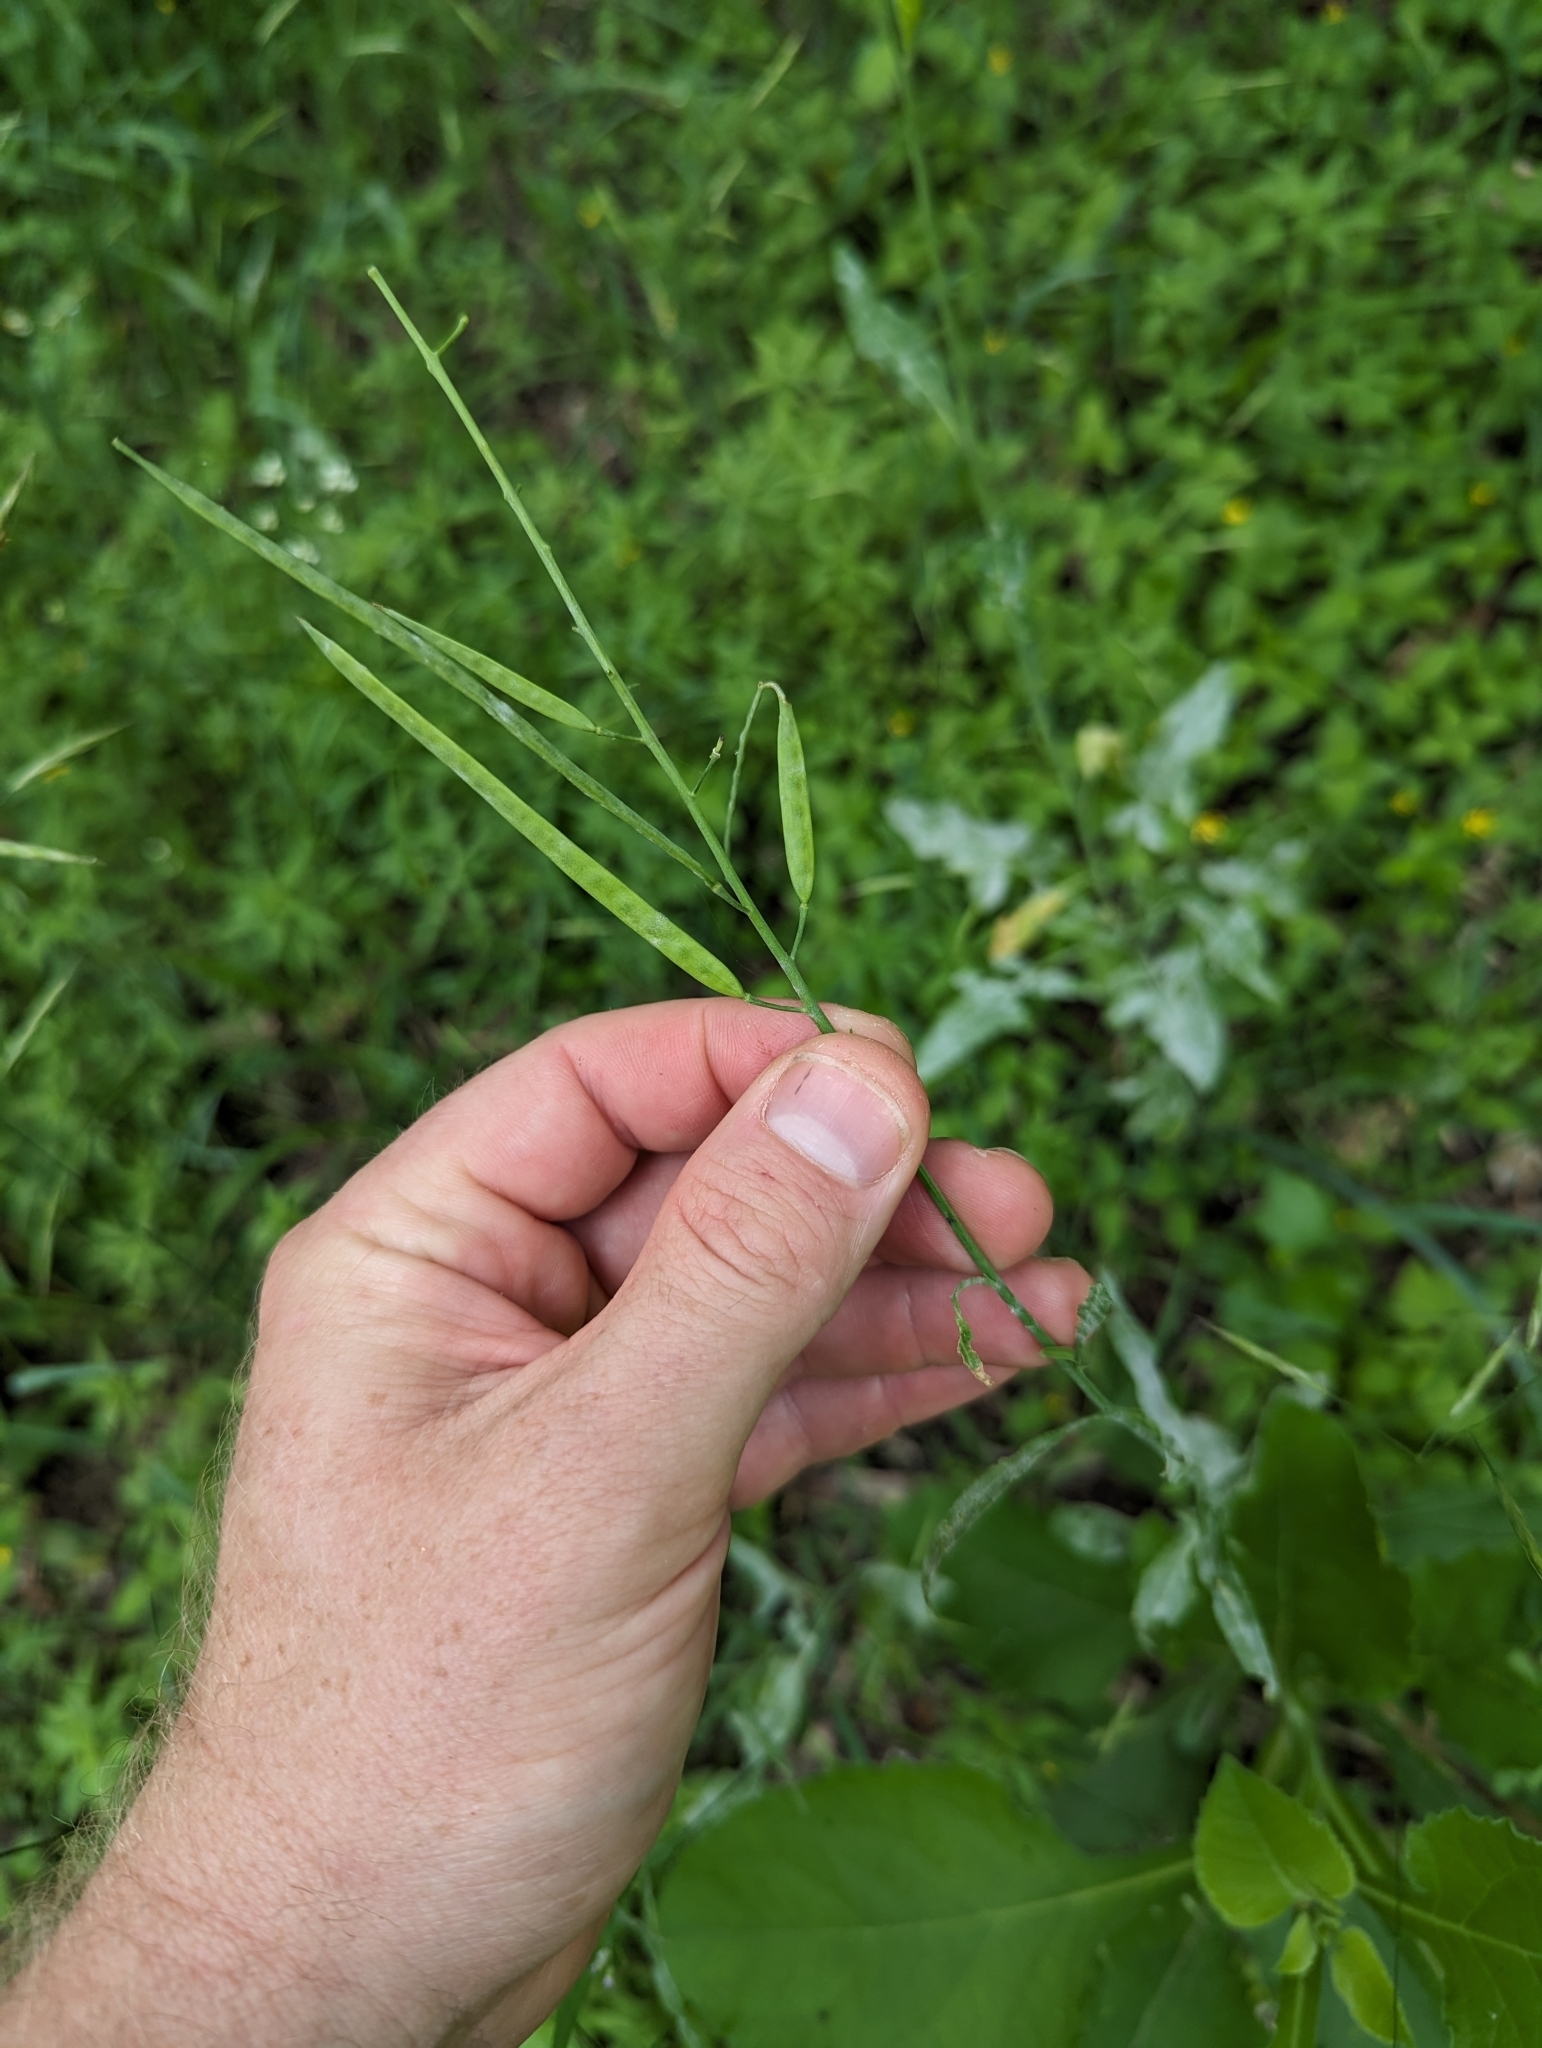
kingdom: Plantae
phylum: Tracheophyta
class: Magnoliopsida
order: Brassicales
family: Brassicaceae
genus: Streptanthus
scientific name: Streptanthus petiolaris
